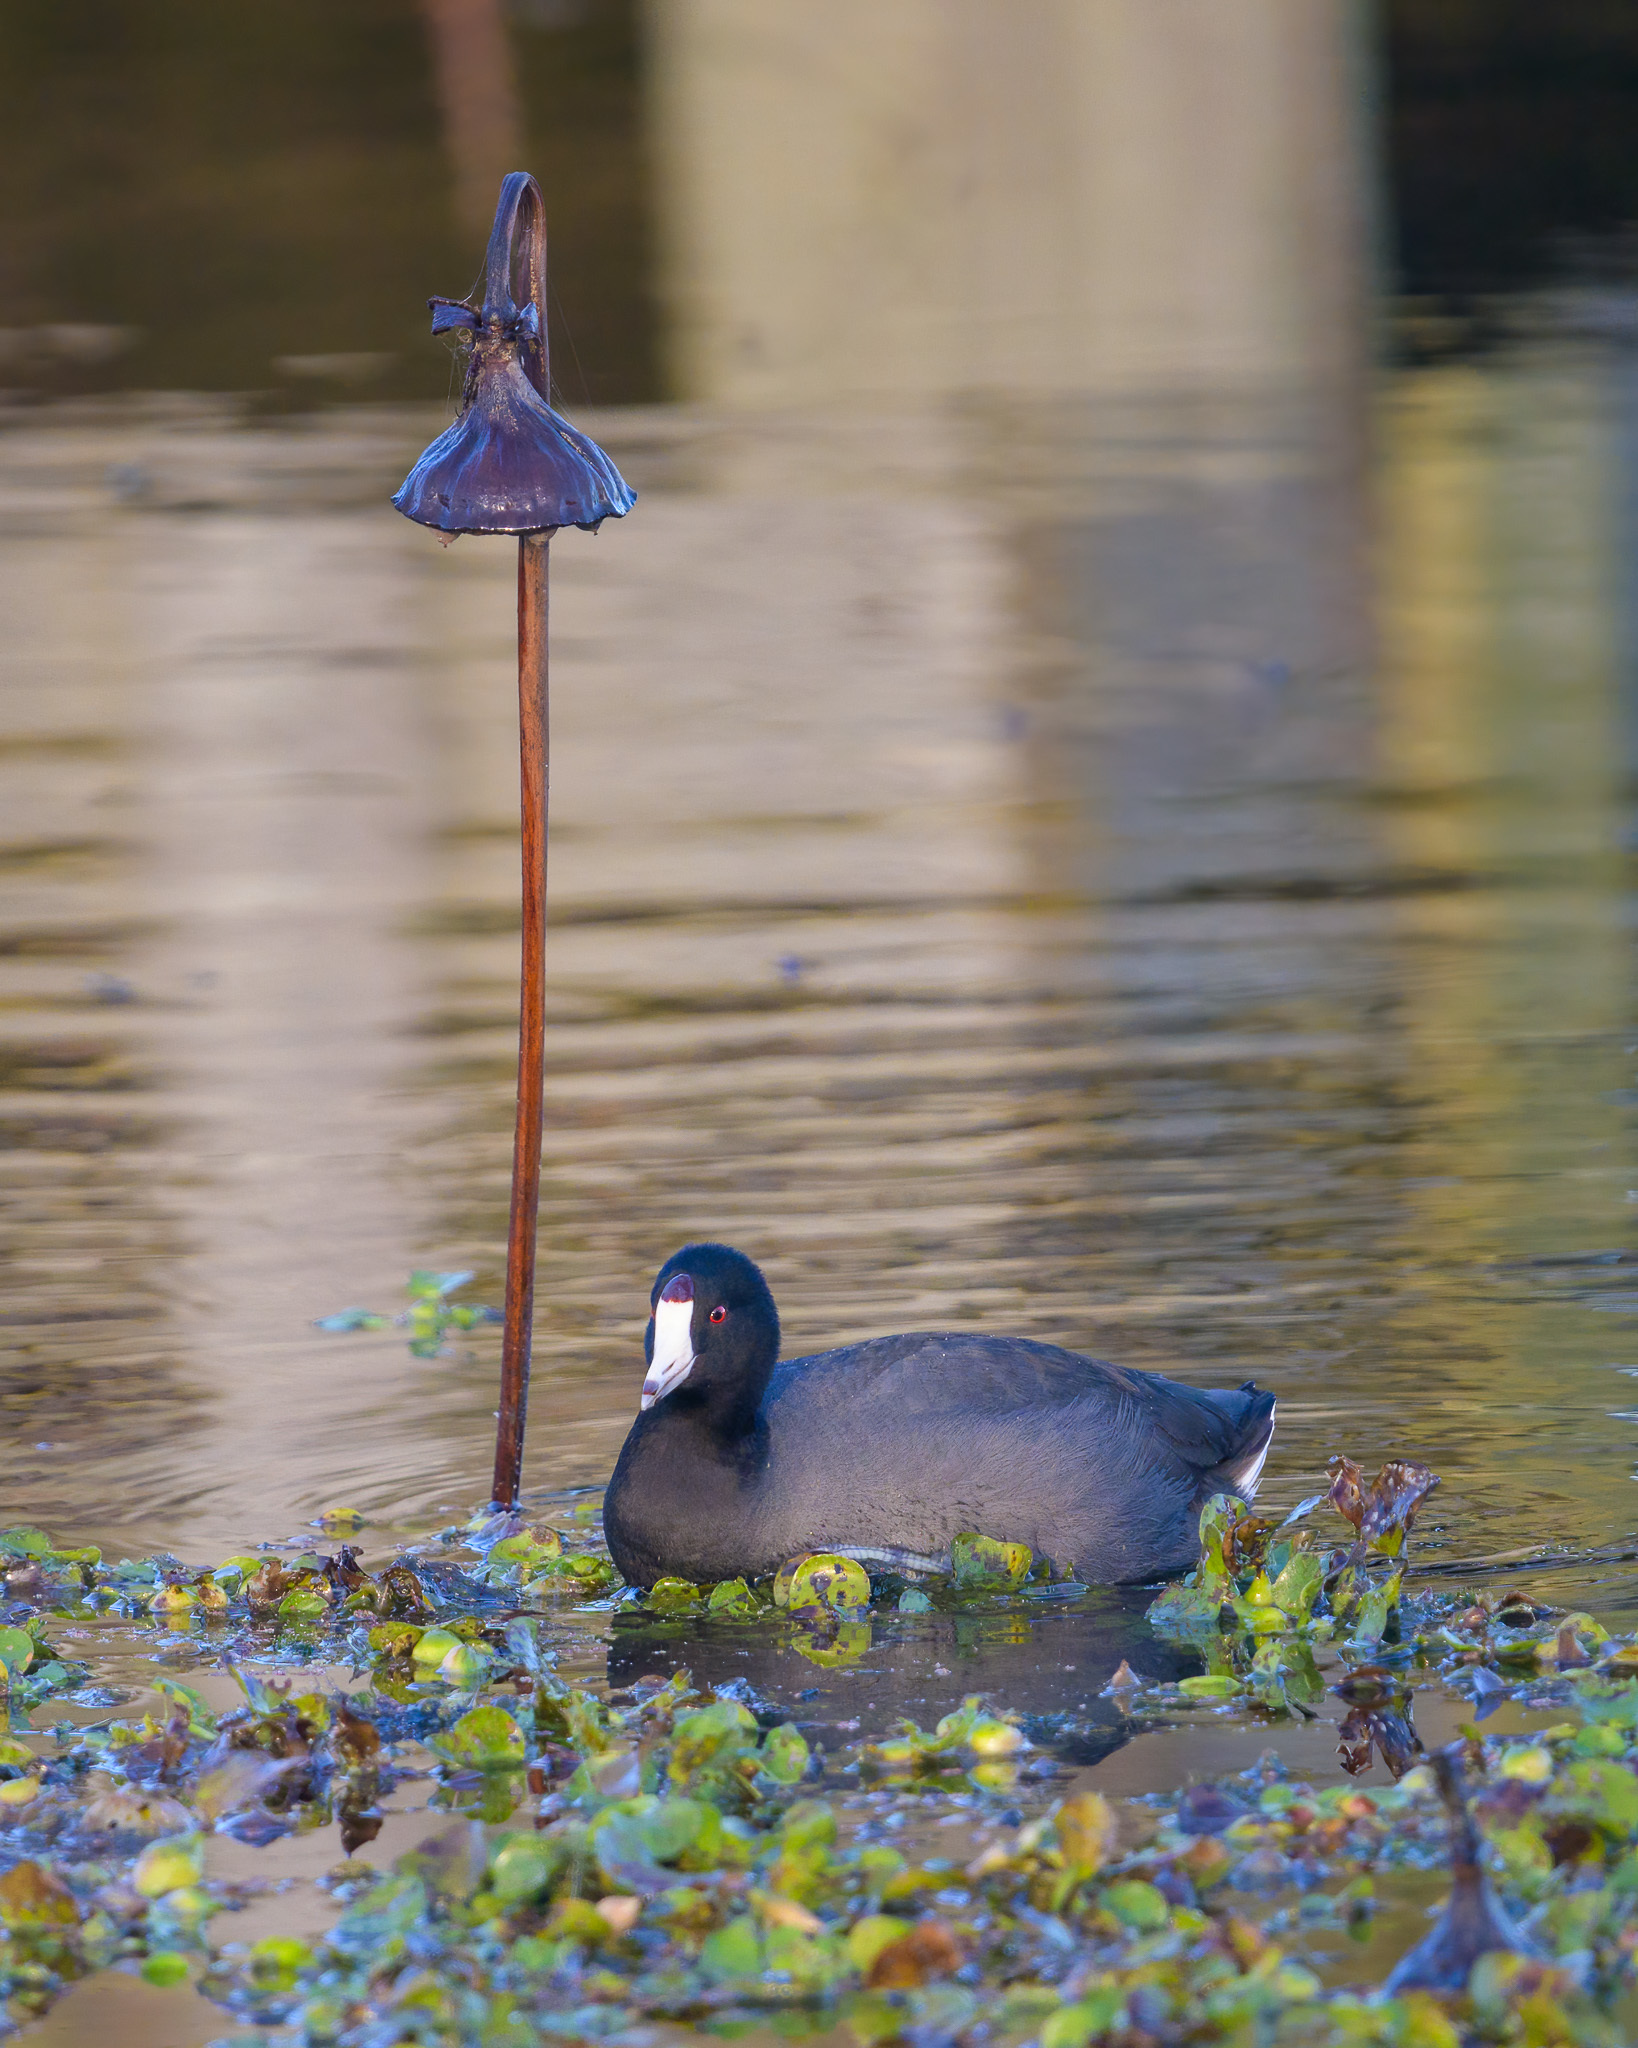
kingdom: Animalia
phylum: Chordata
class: Aves
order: Gruiformes
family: Rallidae
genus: Fulica
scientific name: Fulica americana
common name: American coot
